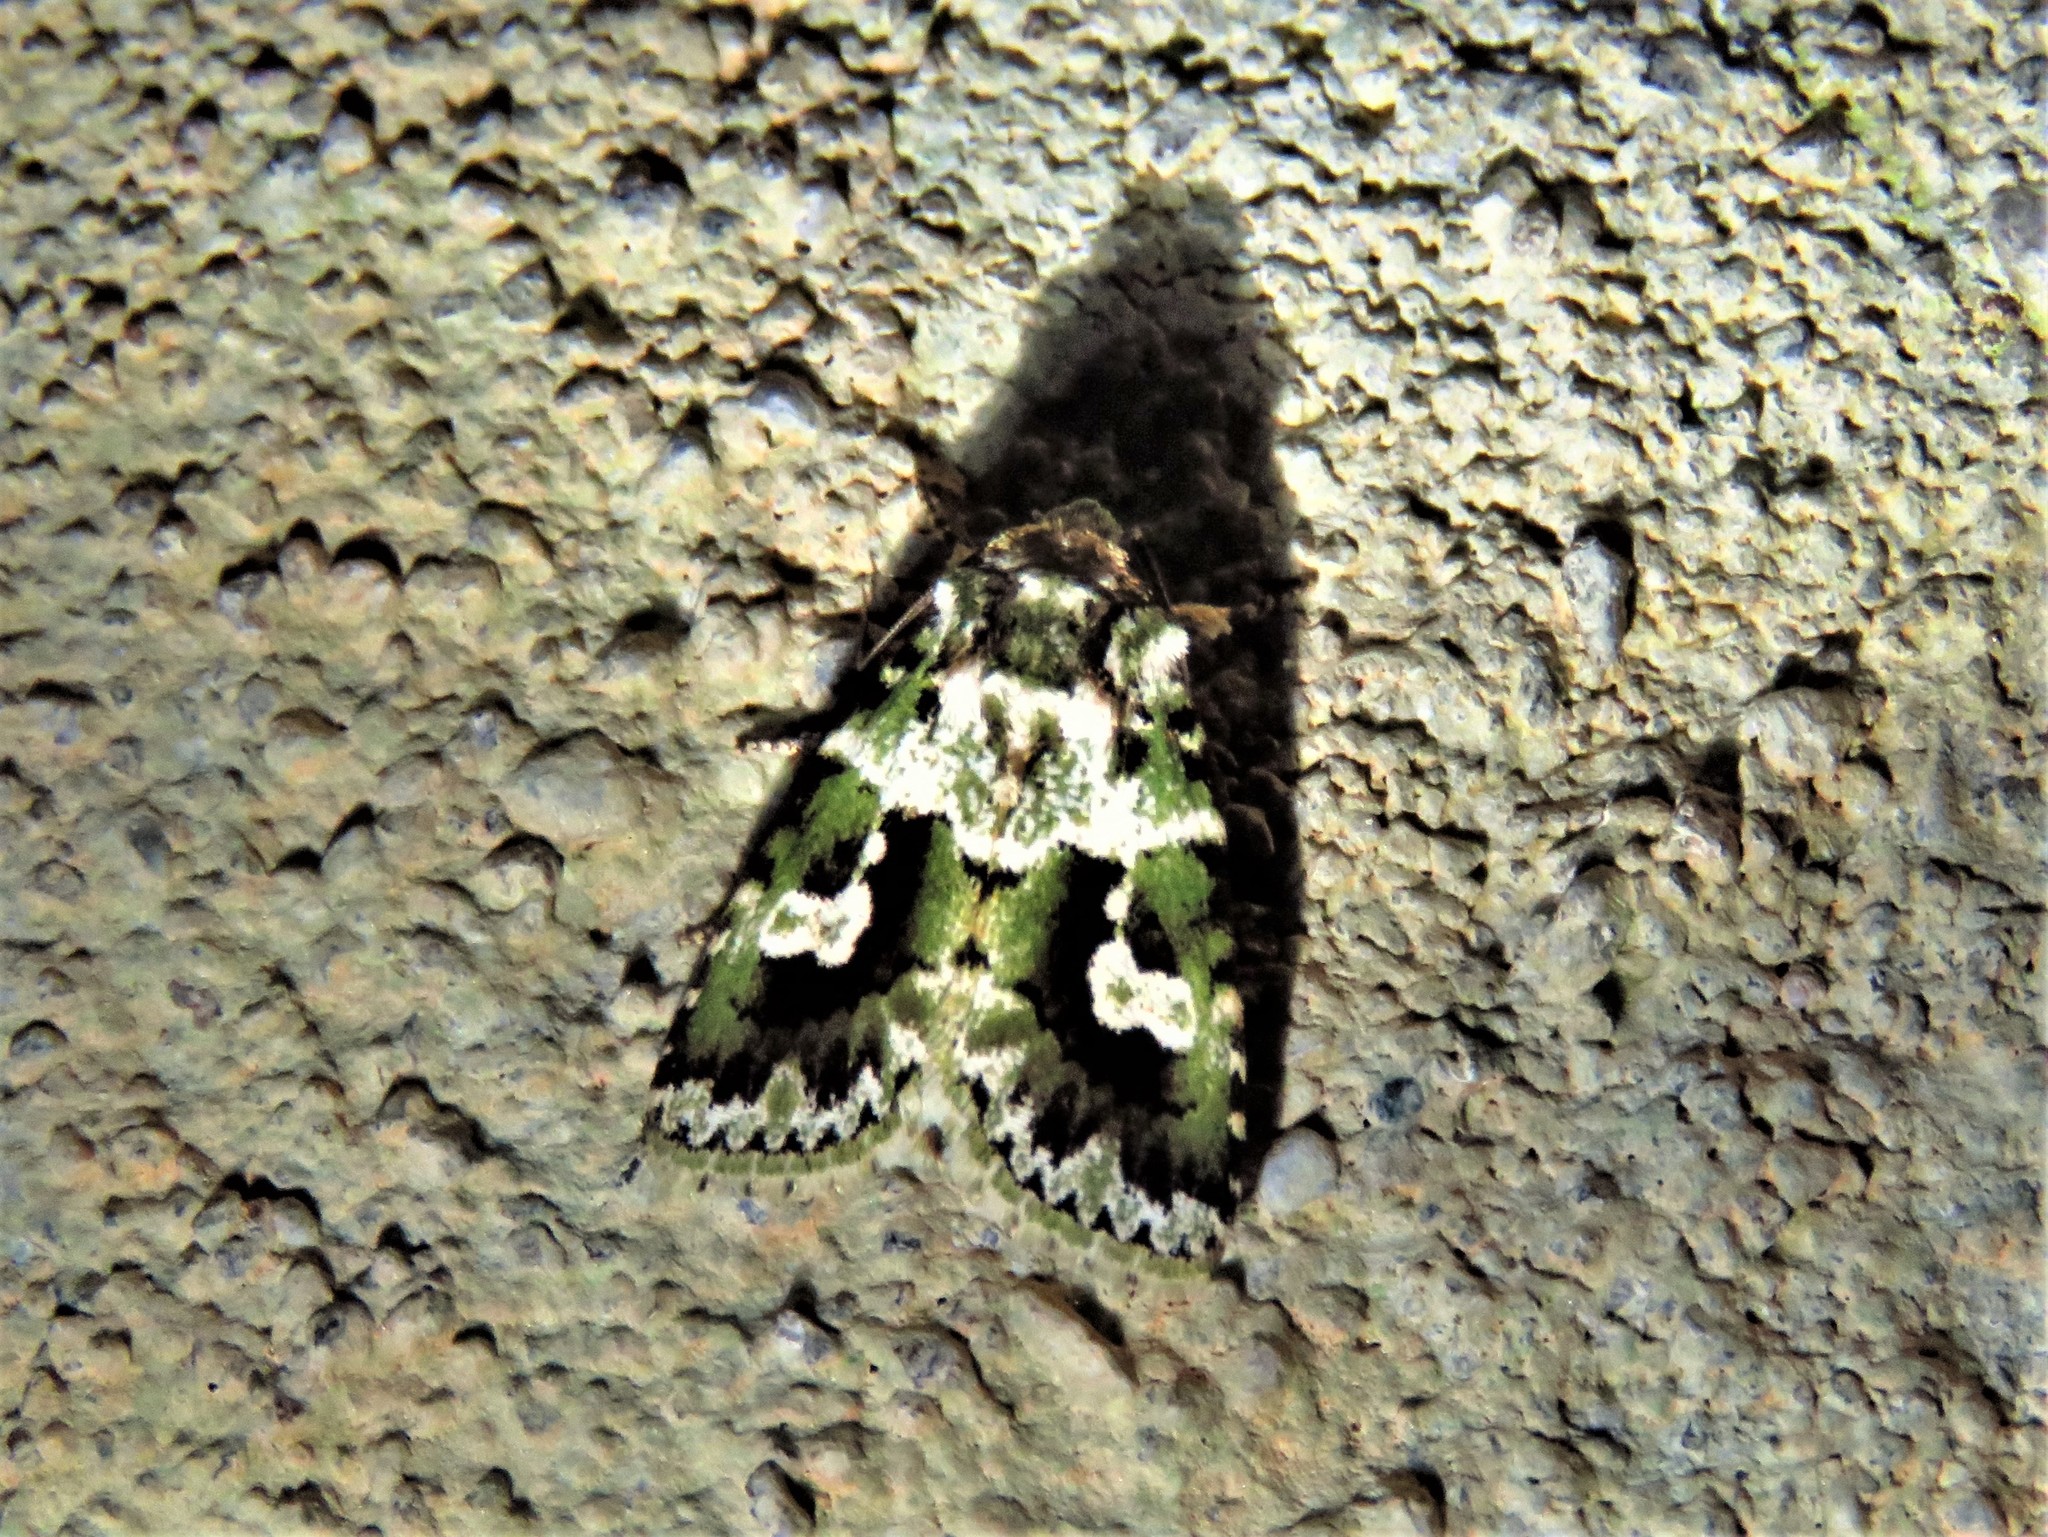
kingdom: Animalia
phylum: Arthropoda
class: Insecta
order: Lepidoptera
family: Noctuidae
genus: Elaphria
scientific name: Elaphria delenifica
